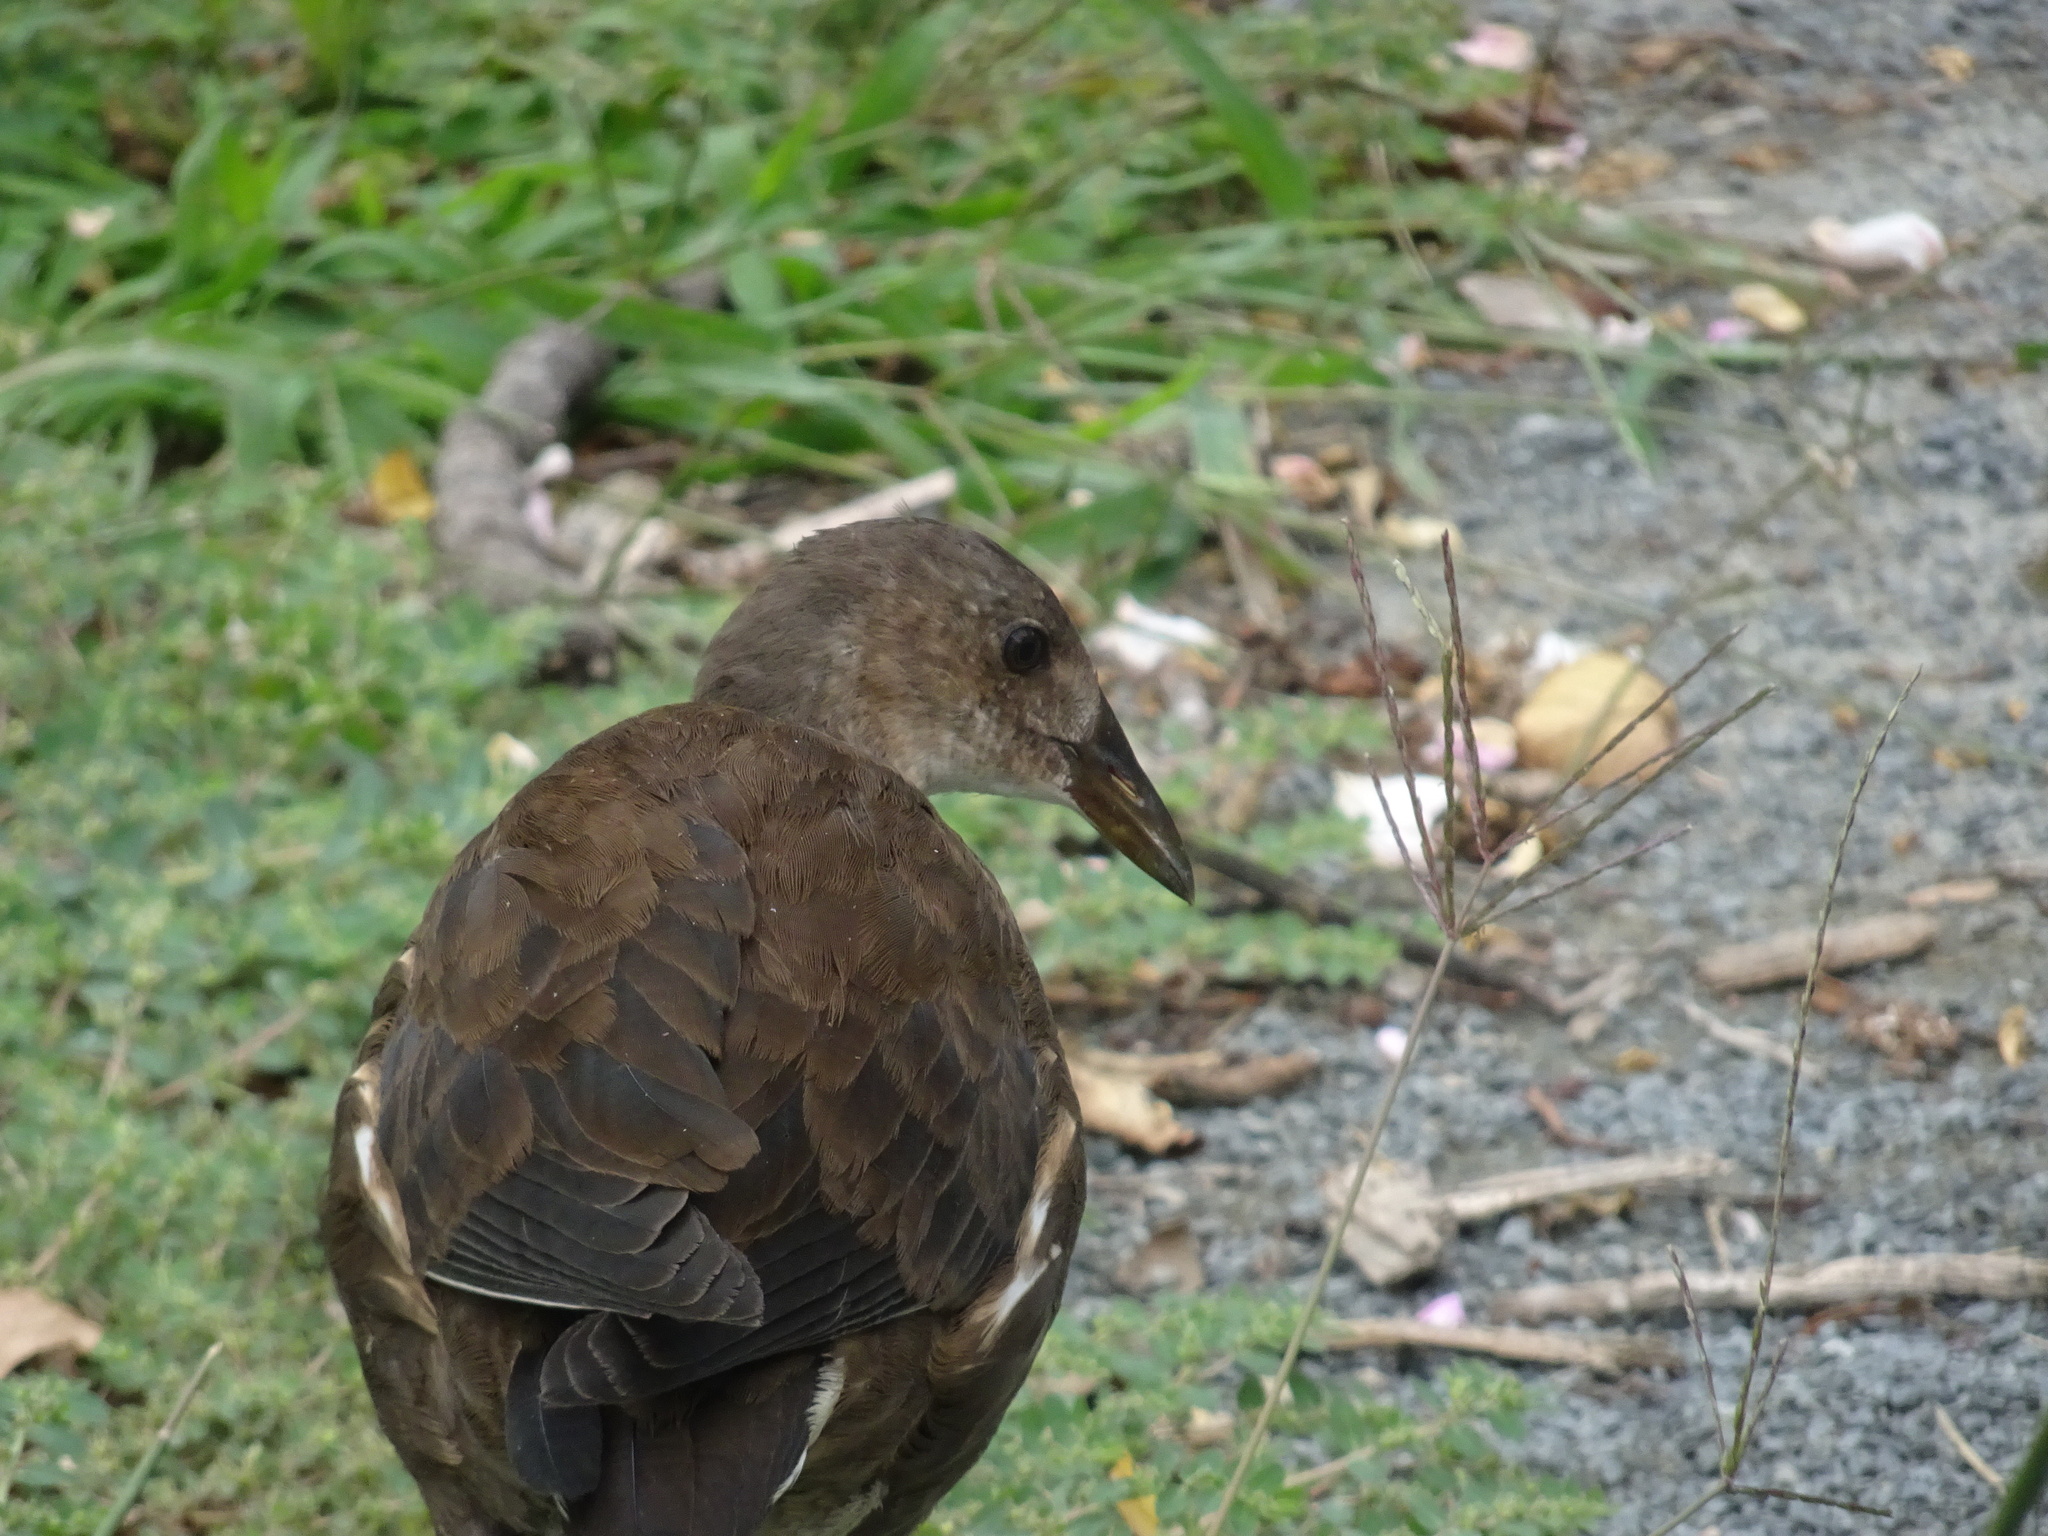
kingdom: Animalia
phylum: Chordata
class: Aves
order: Gruiformes
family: Rallidae
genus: Gallinula
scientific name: Gallinula chloropus
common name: Common moorhen
